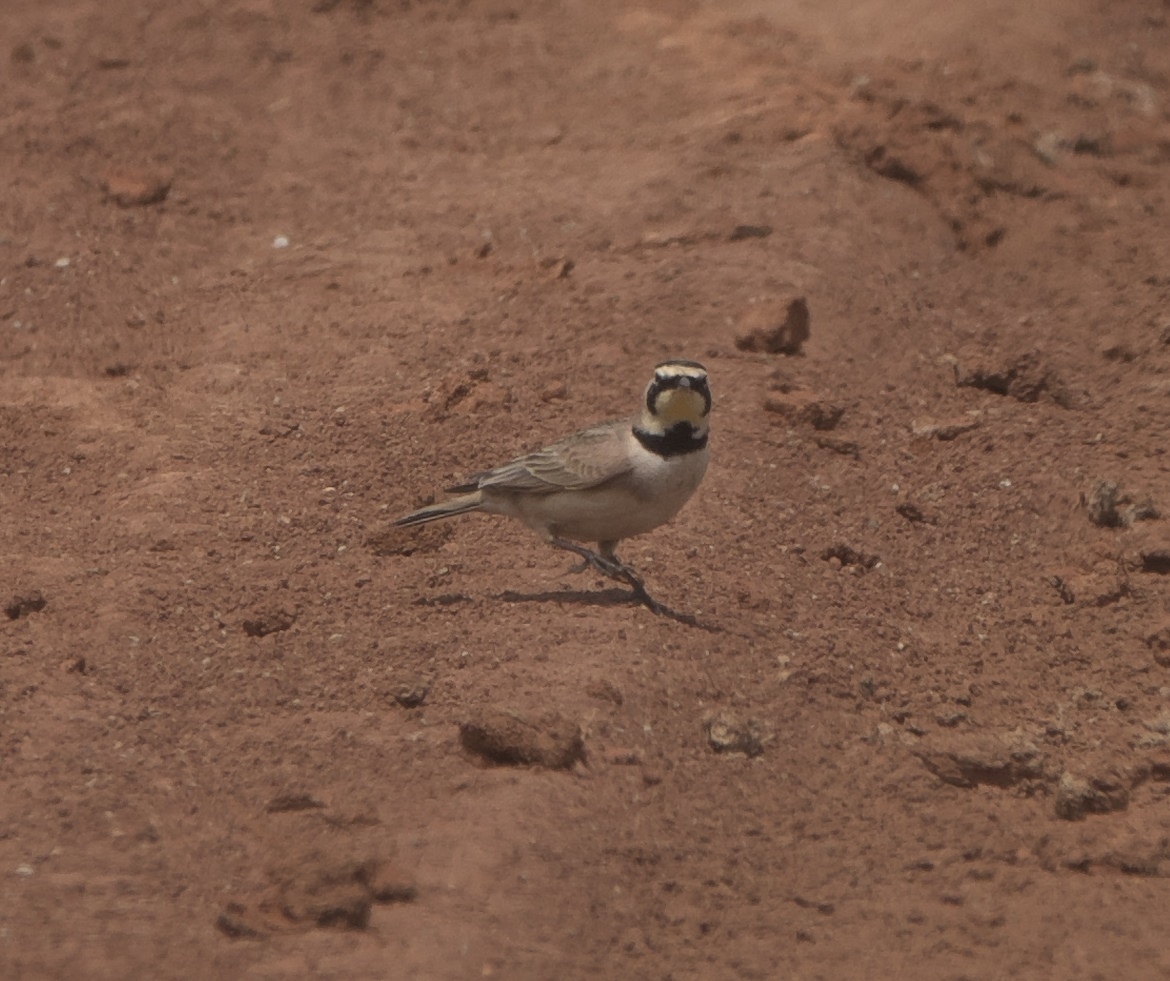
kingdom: Animalia
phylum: Chordata
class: Aves
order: Passeriformes
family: Alaudidae
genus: Eremophila
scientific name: Eremophila alpestris
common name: Horned lark
